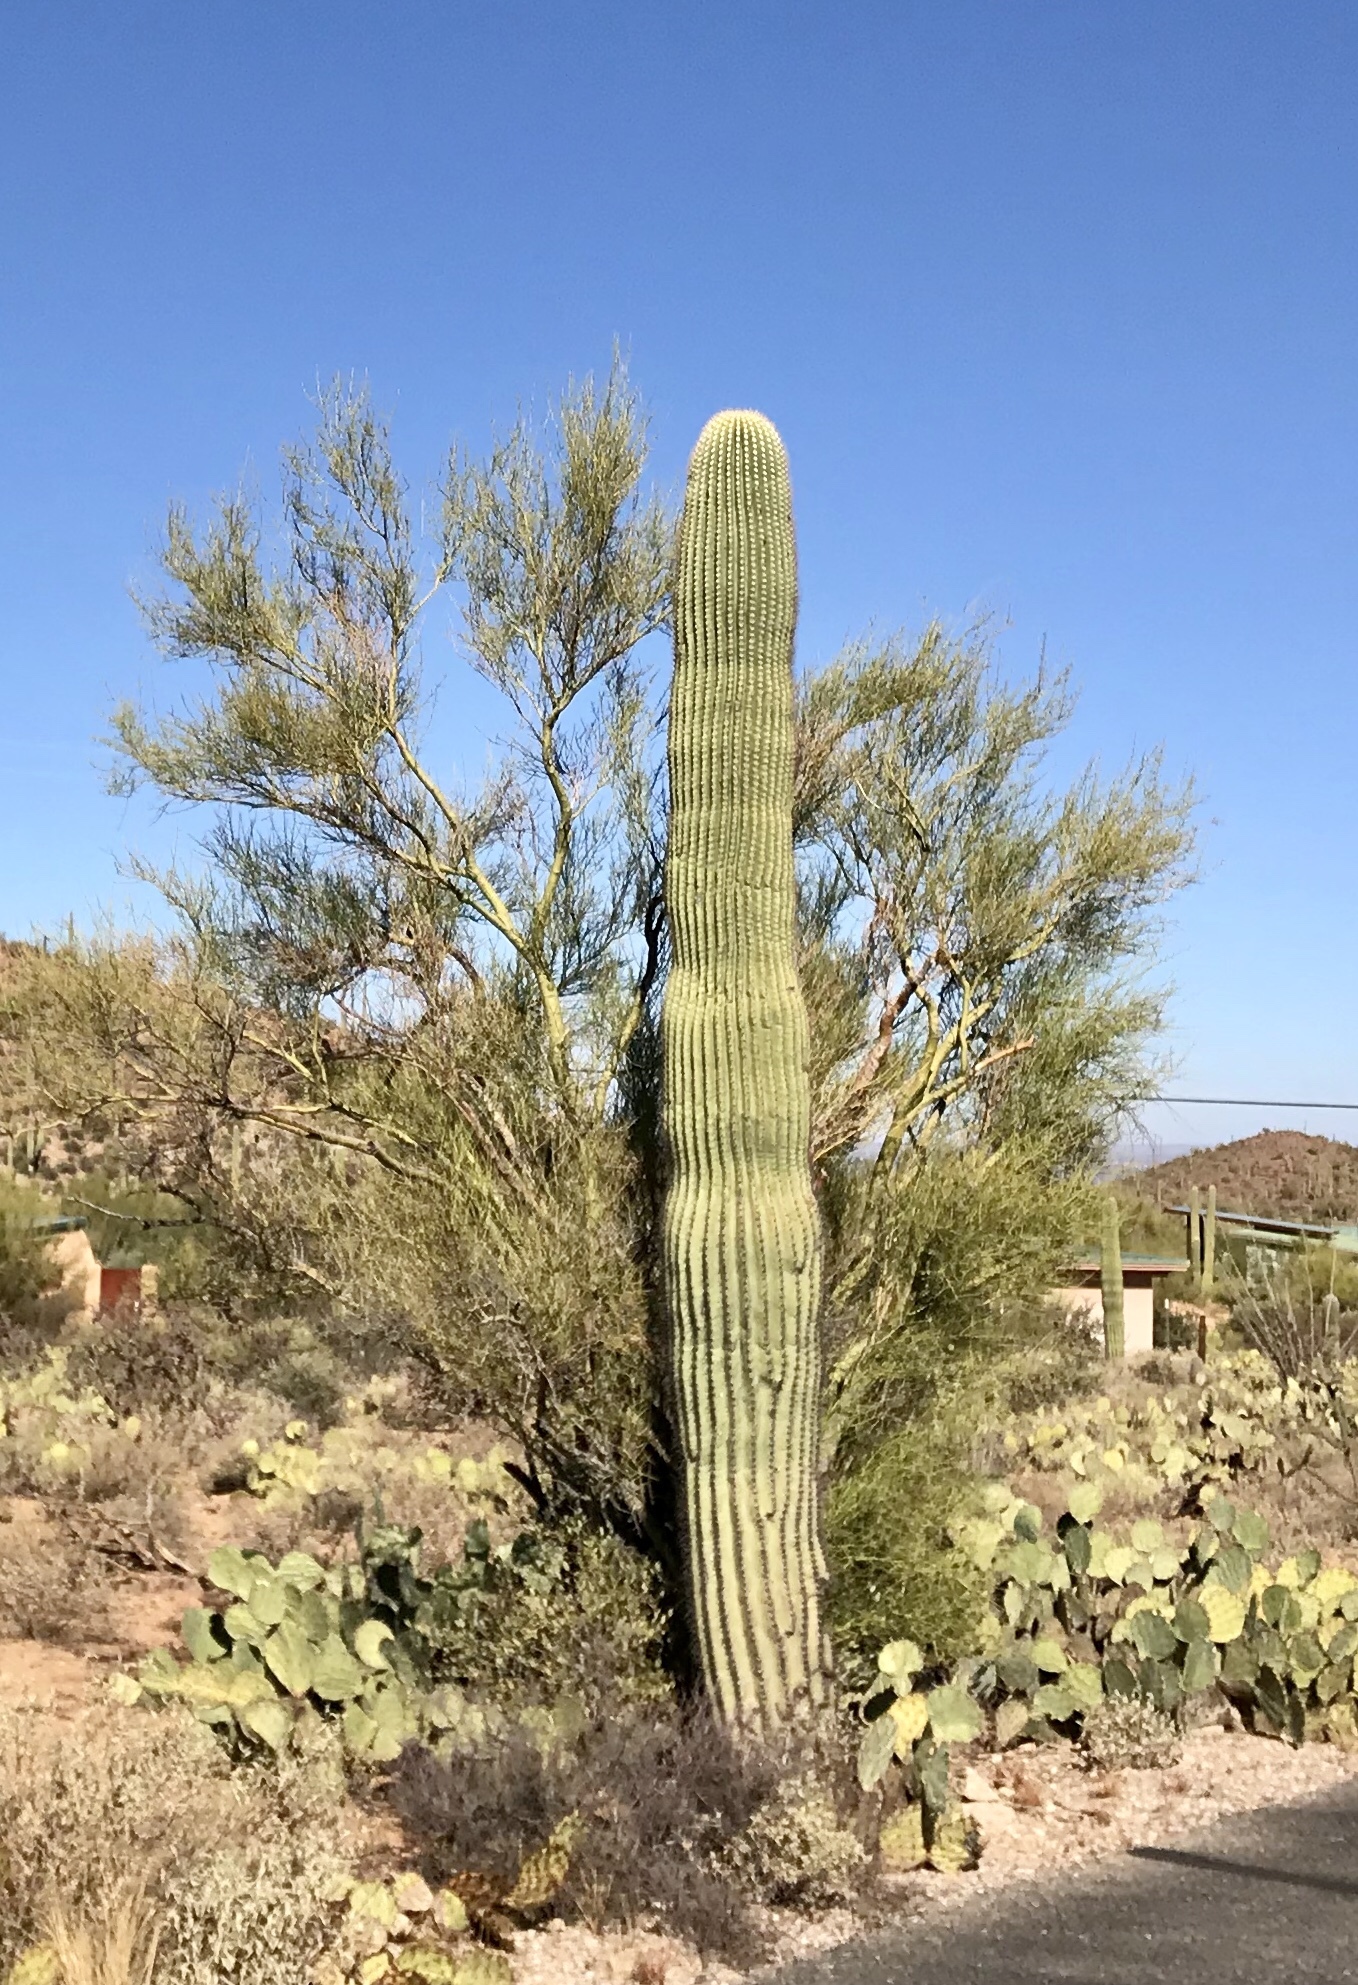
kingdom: Plantae
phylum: Tracheophyta
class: Magnoliopsida
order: Caryophyllales
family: Cactaceae
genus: Carnegiea
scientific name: Carnegiea gigantea
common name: Saguaro
